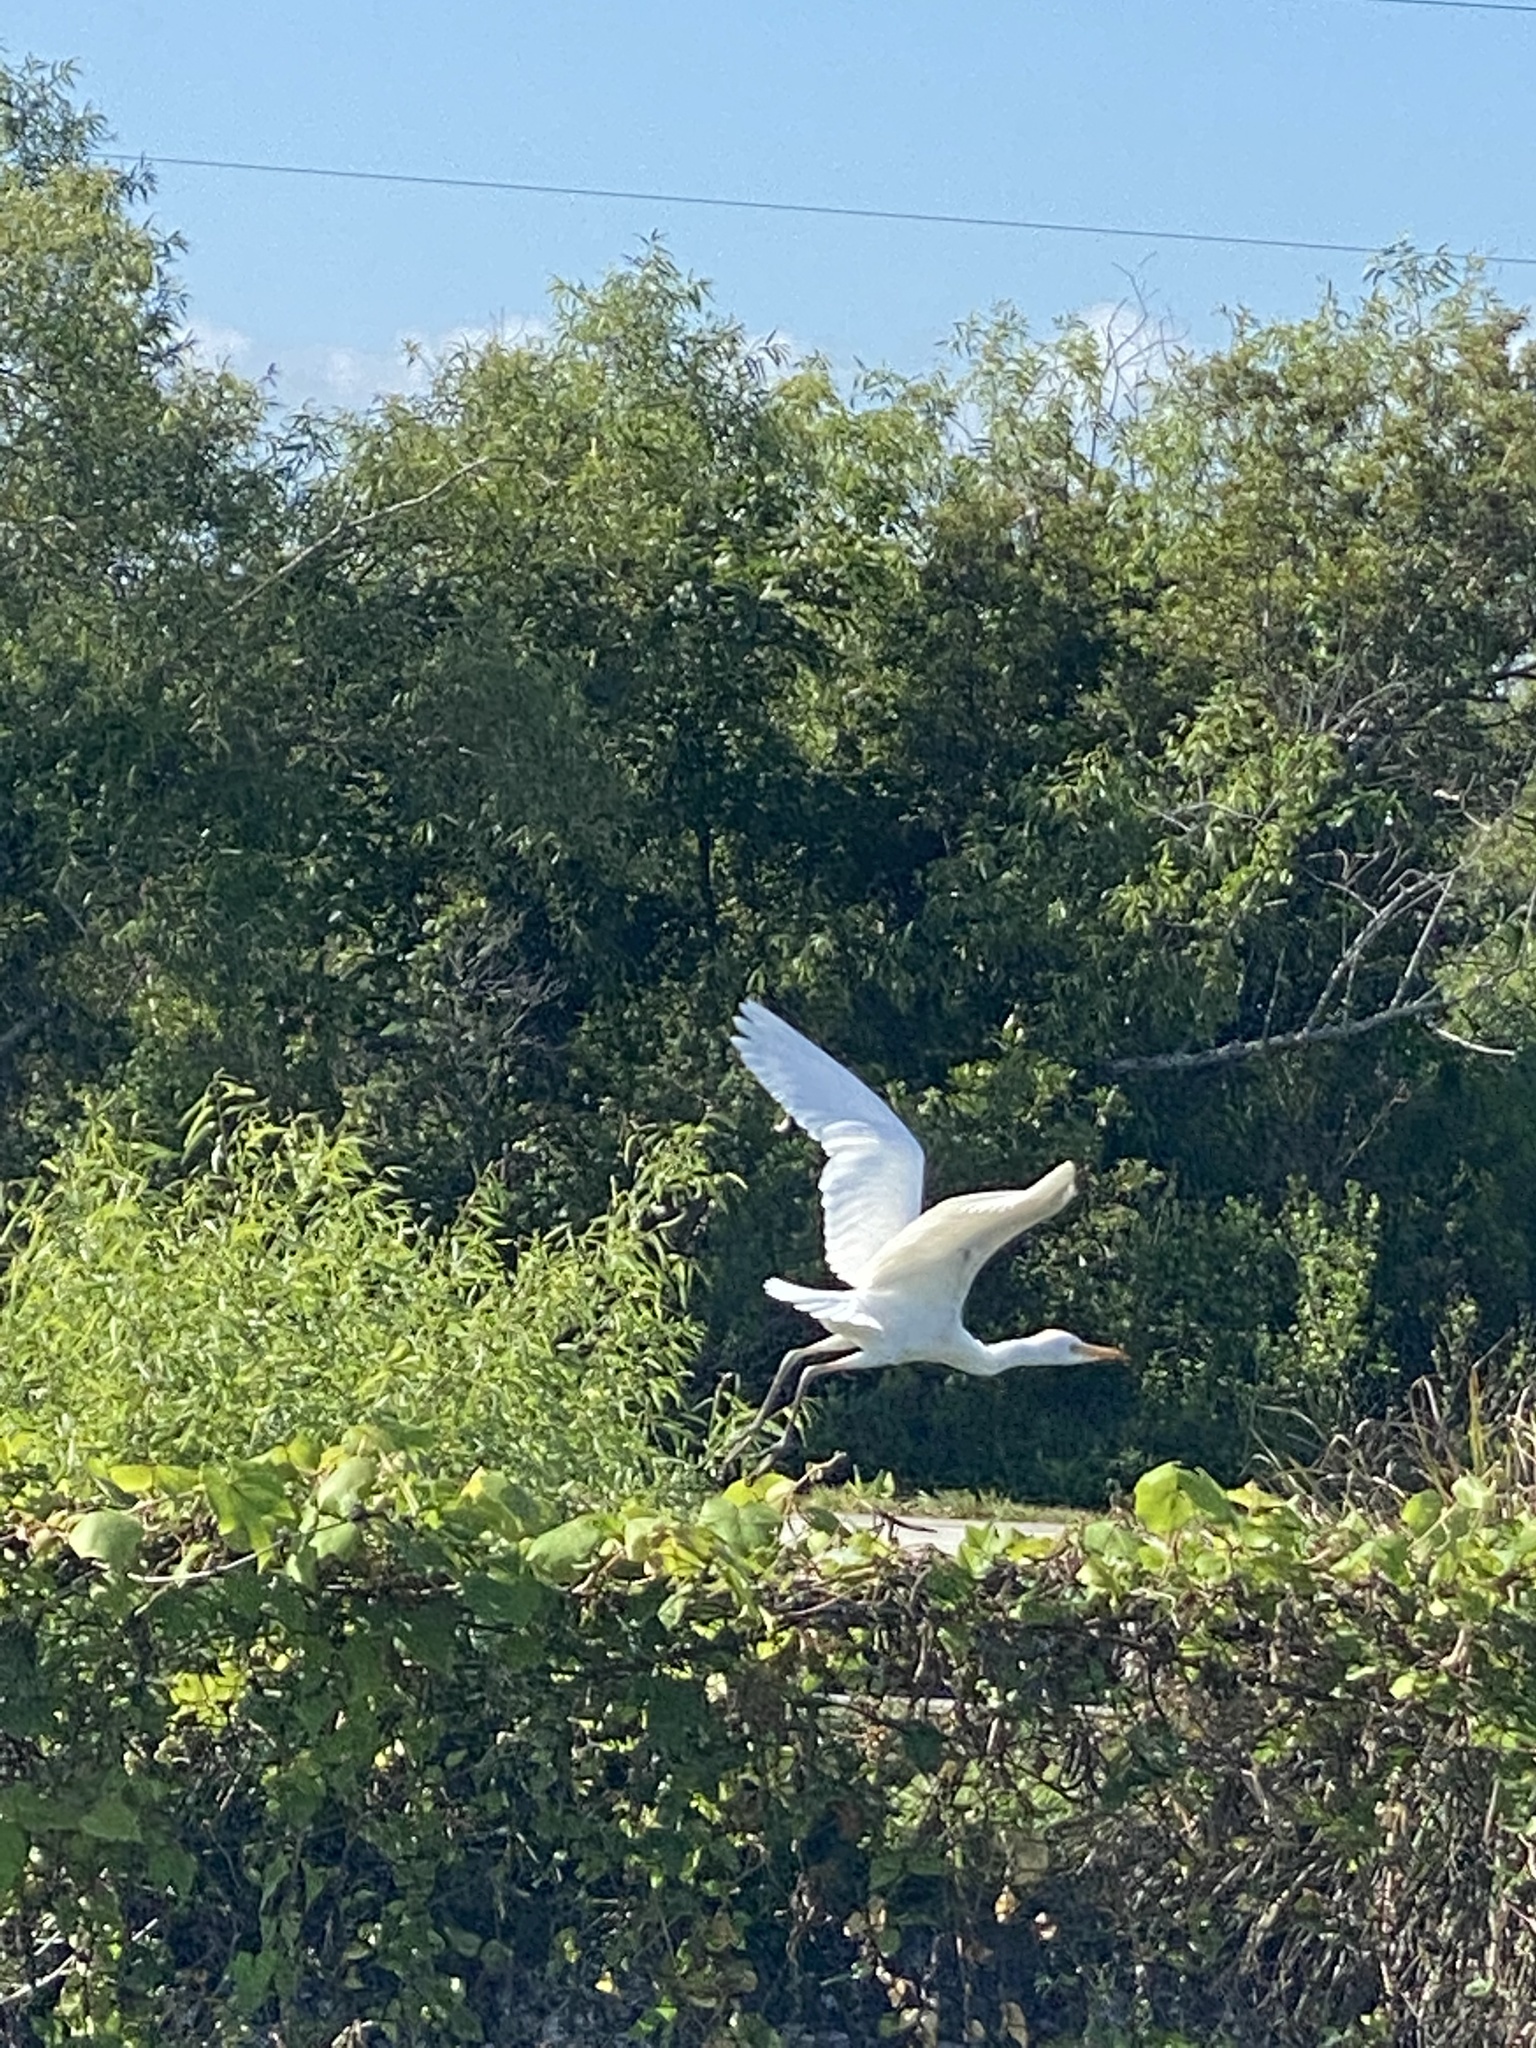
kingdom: Animalia
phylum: Chordata
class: Aves
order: Pelecaniformes
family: Ardeidae
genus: Ardea
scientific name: Ardea alba
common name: Great egret
